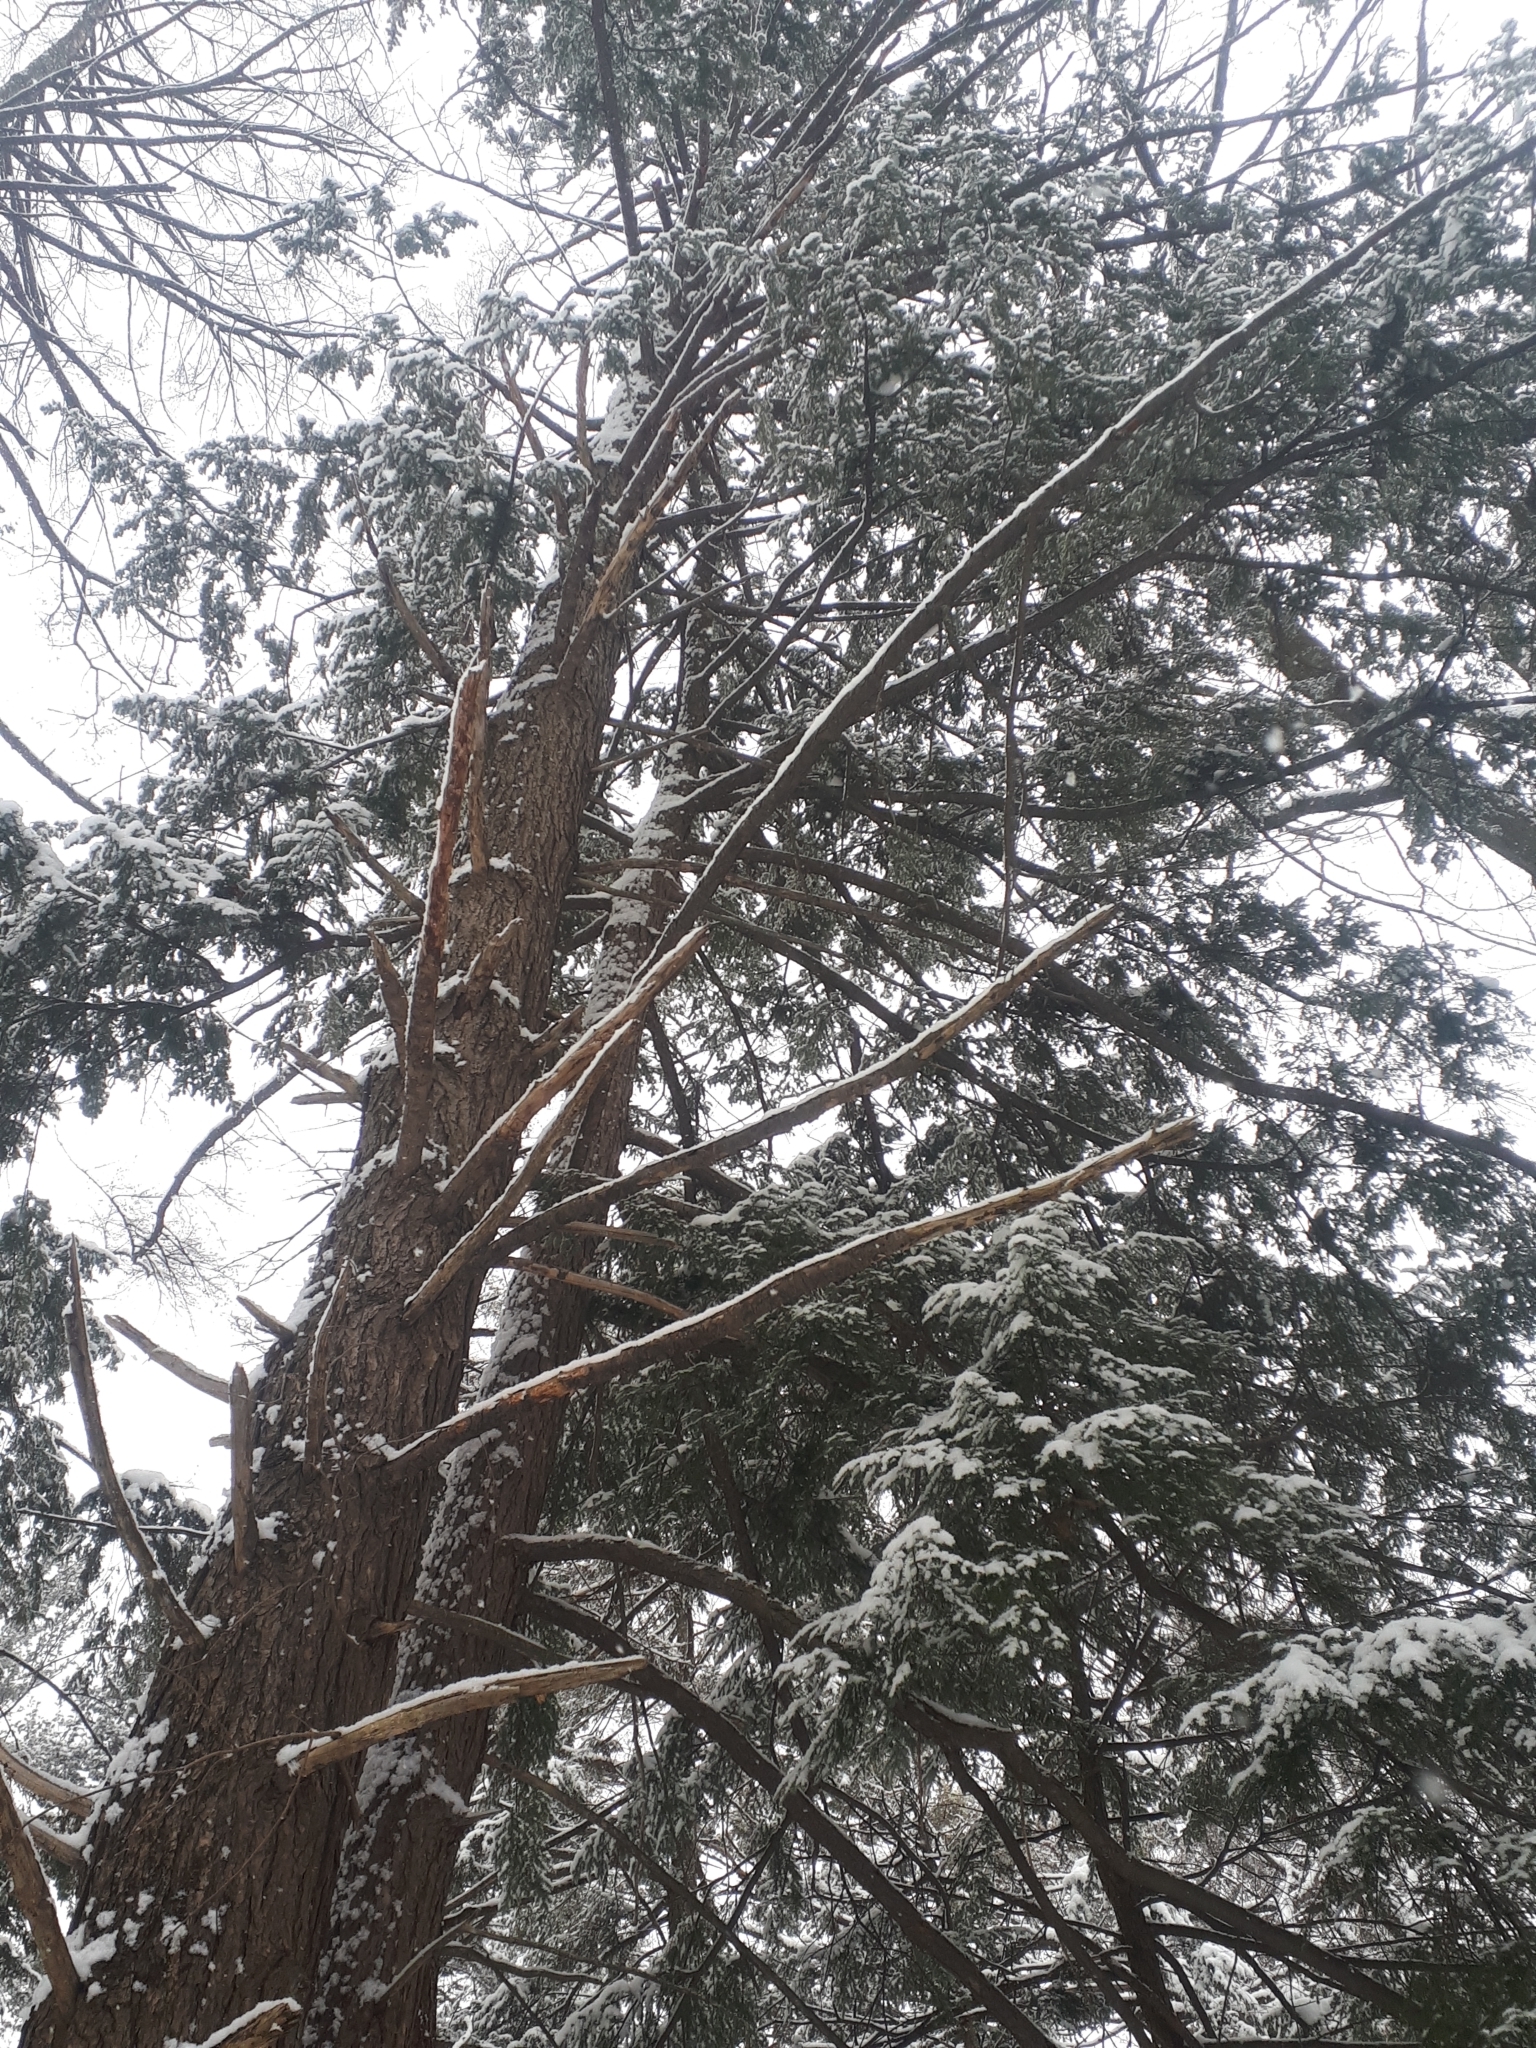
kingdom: Plantae
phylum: Tracheophyta
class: Pinopsida
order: Pinales
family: Pinaceae
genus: Tsuga
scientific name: Tsuga canadensis
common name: Eastern hemlock
